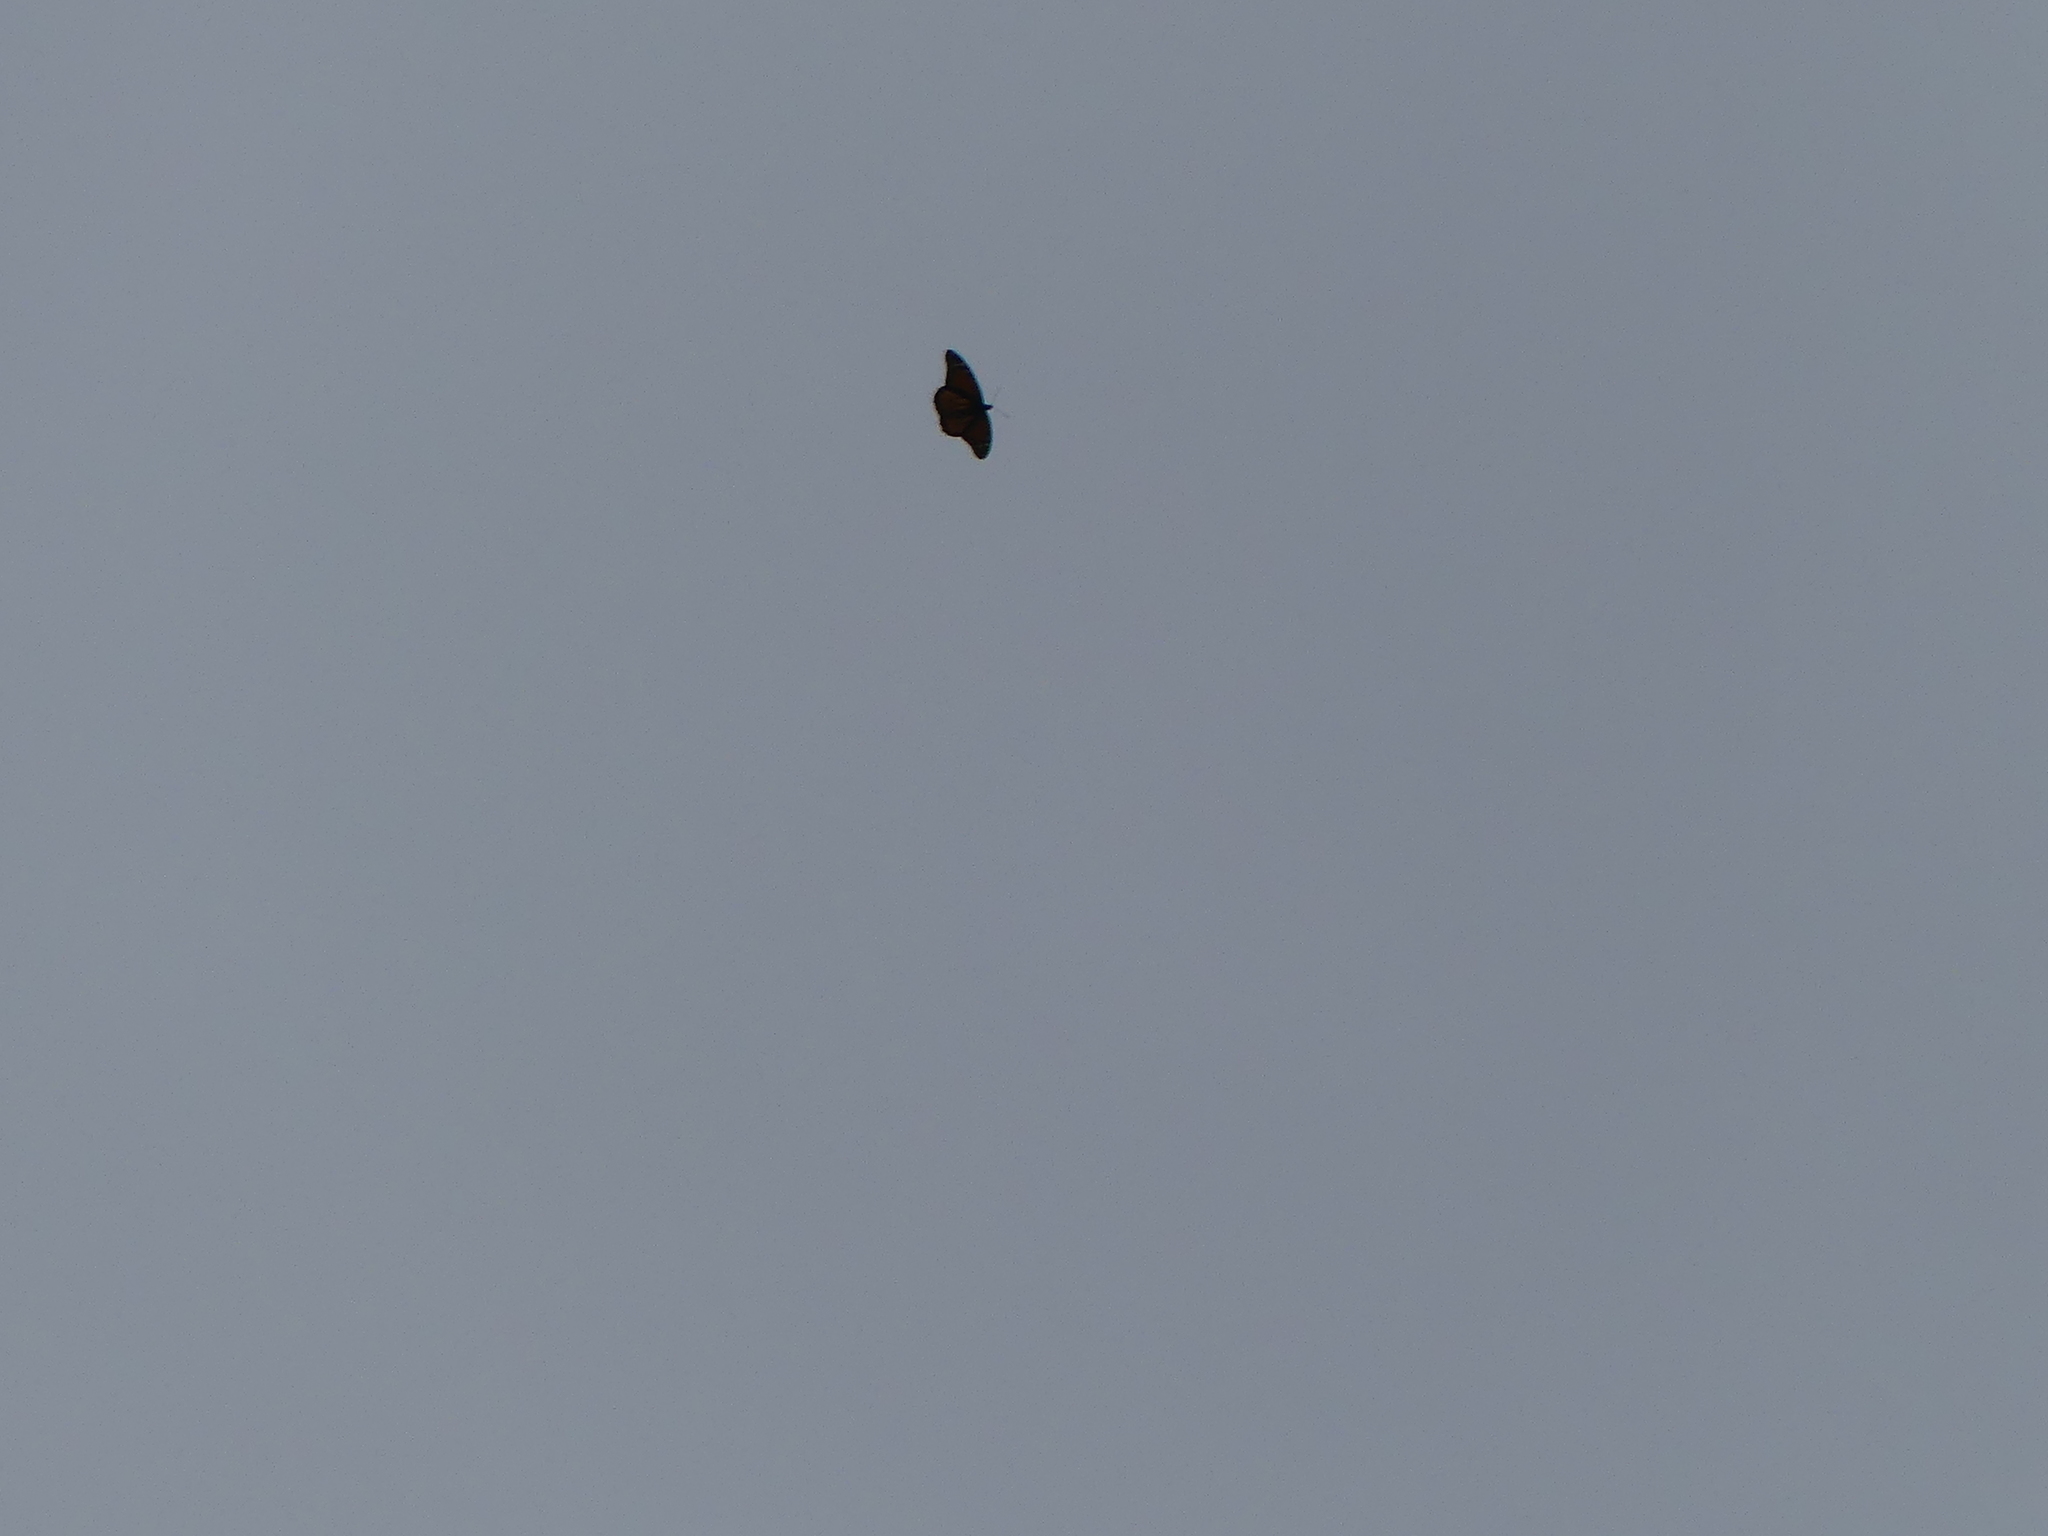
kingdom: Animalia
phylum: Arthropoda
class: Insecta
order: Lepidoptera
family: Nymphalidae
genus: Danaus
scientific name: Danaus plexippus
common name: Monarch
